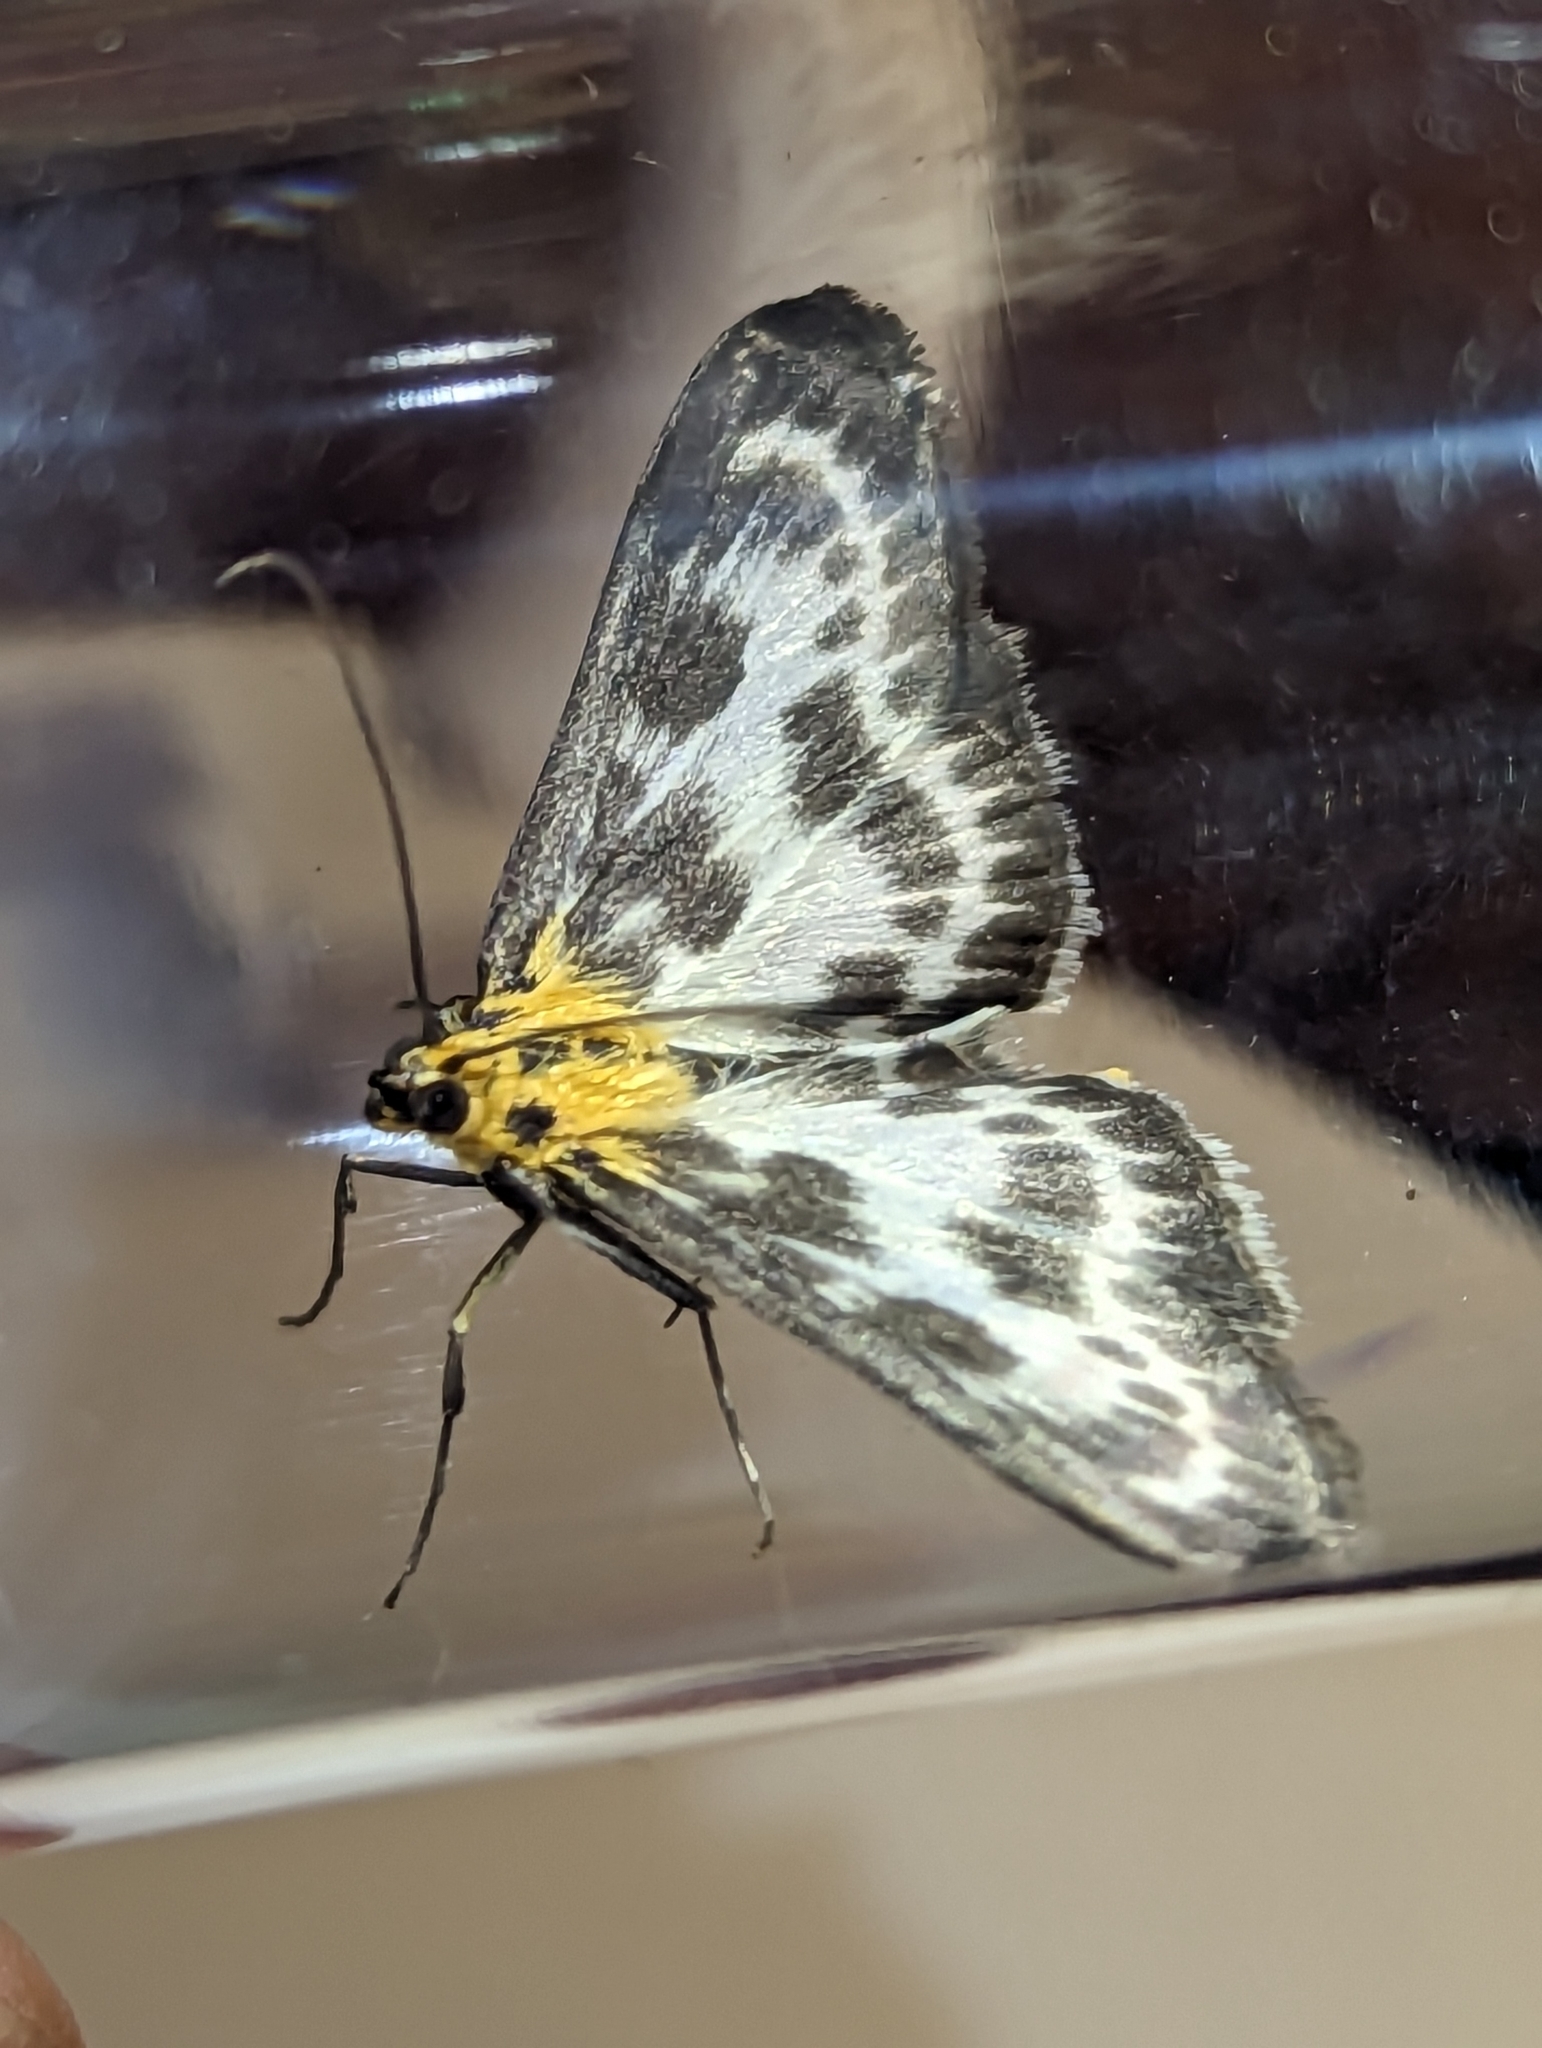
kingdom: Animalia
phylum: Arthropoda
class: Insecta
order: Lepidoptera
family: Crambidae
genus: Anania
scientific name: Anania hortulata
